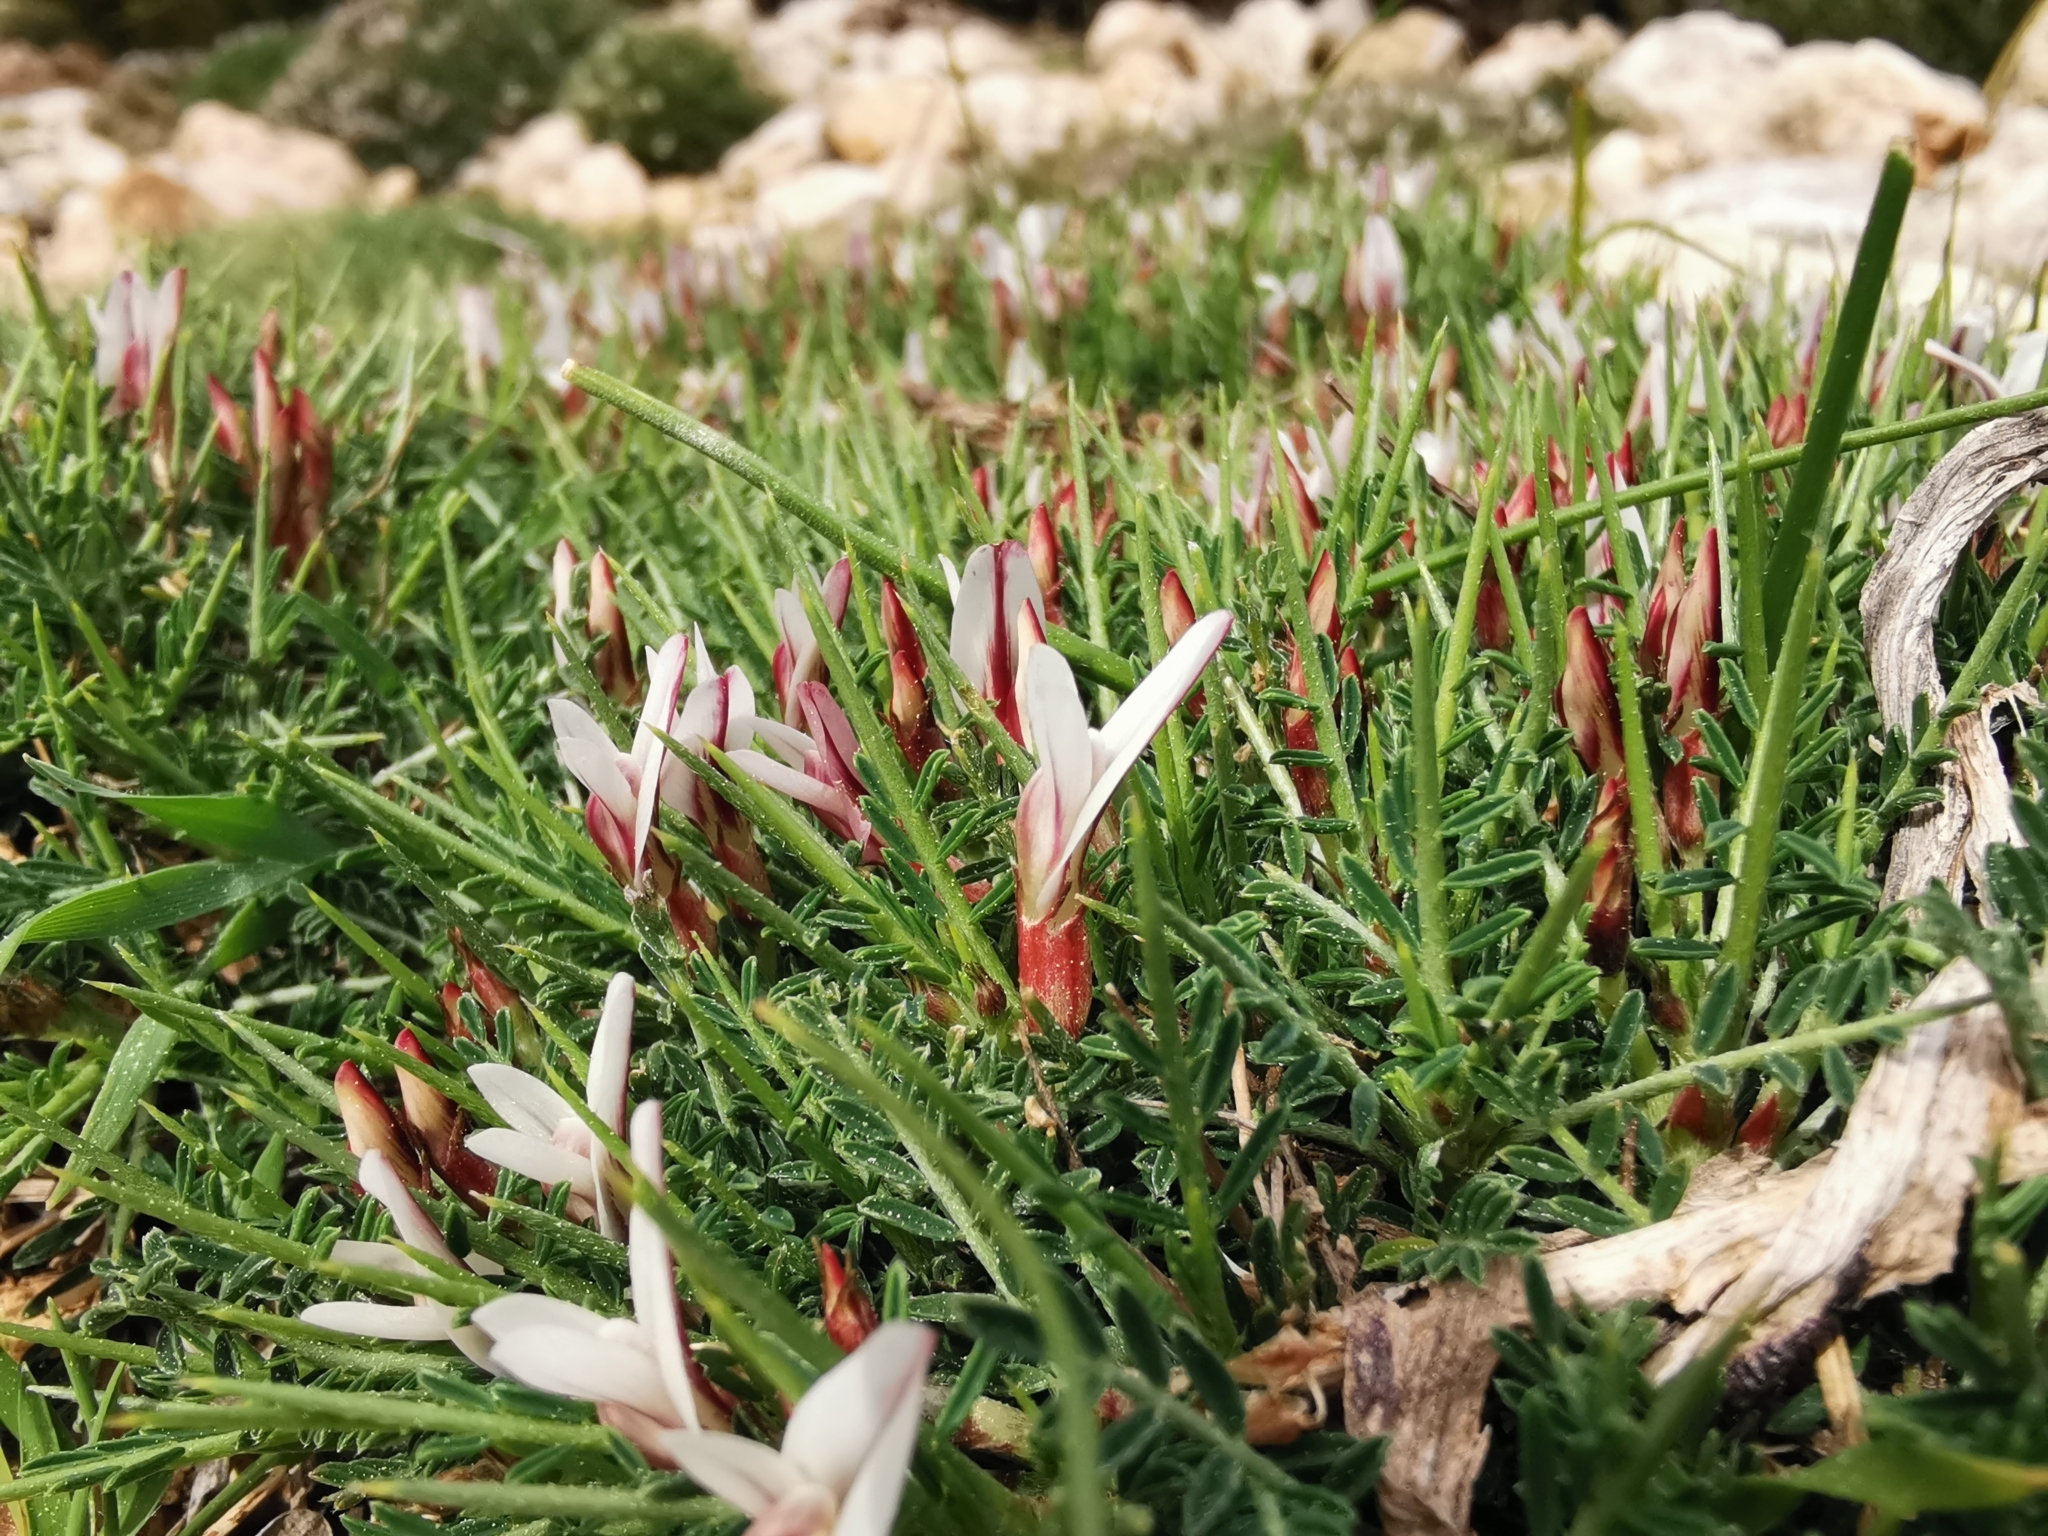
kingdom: Plantae
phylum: Tracheophyta
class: Magnoliopsida
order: Fabales
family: Fabaceae
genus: Astragalus
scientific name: Astragalus balearicus
